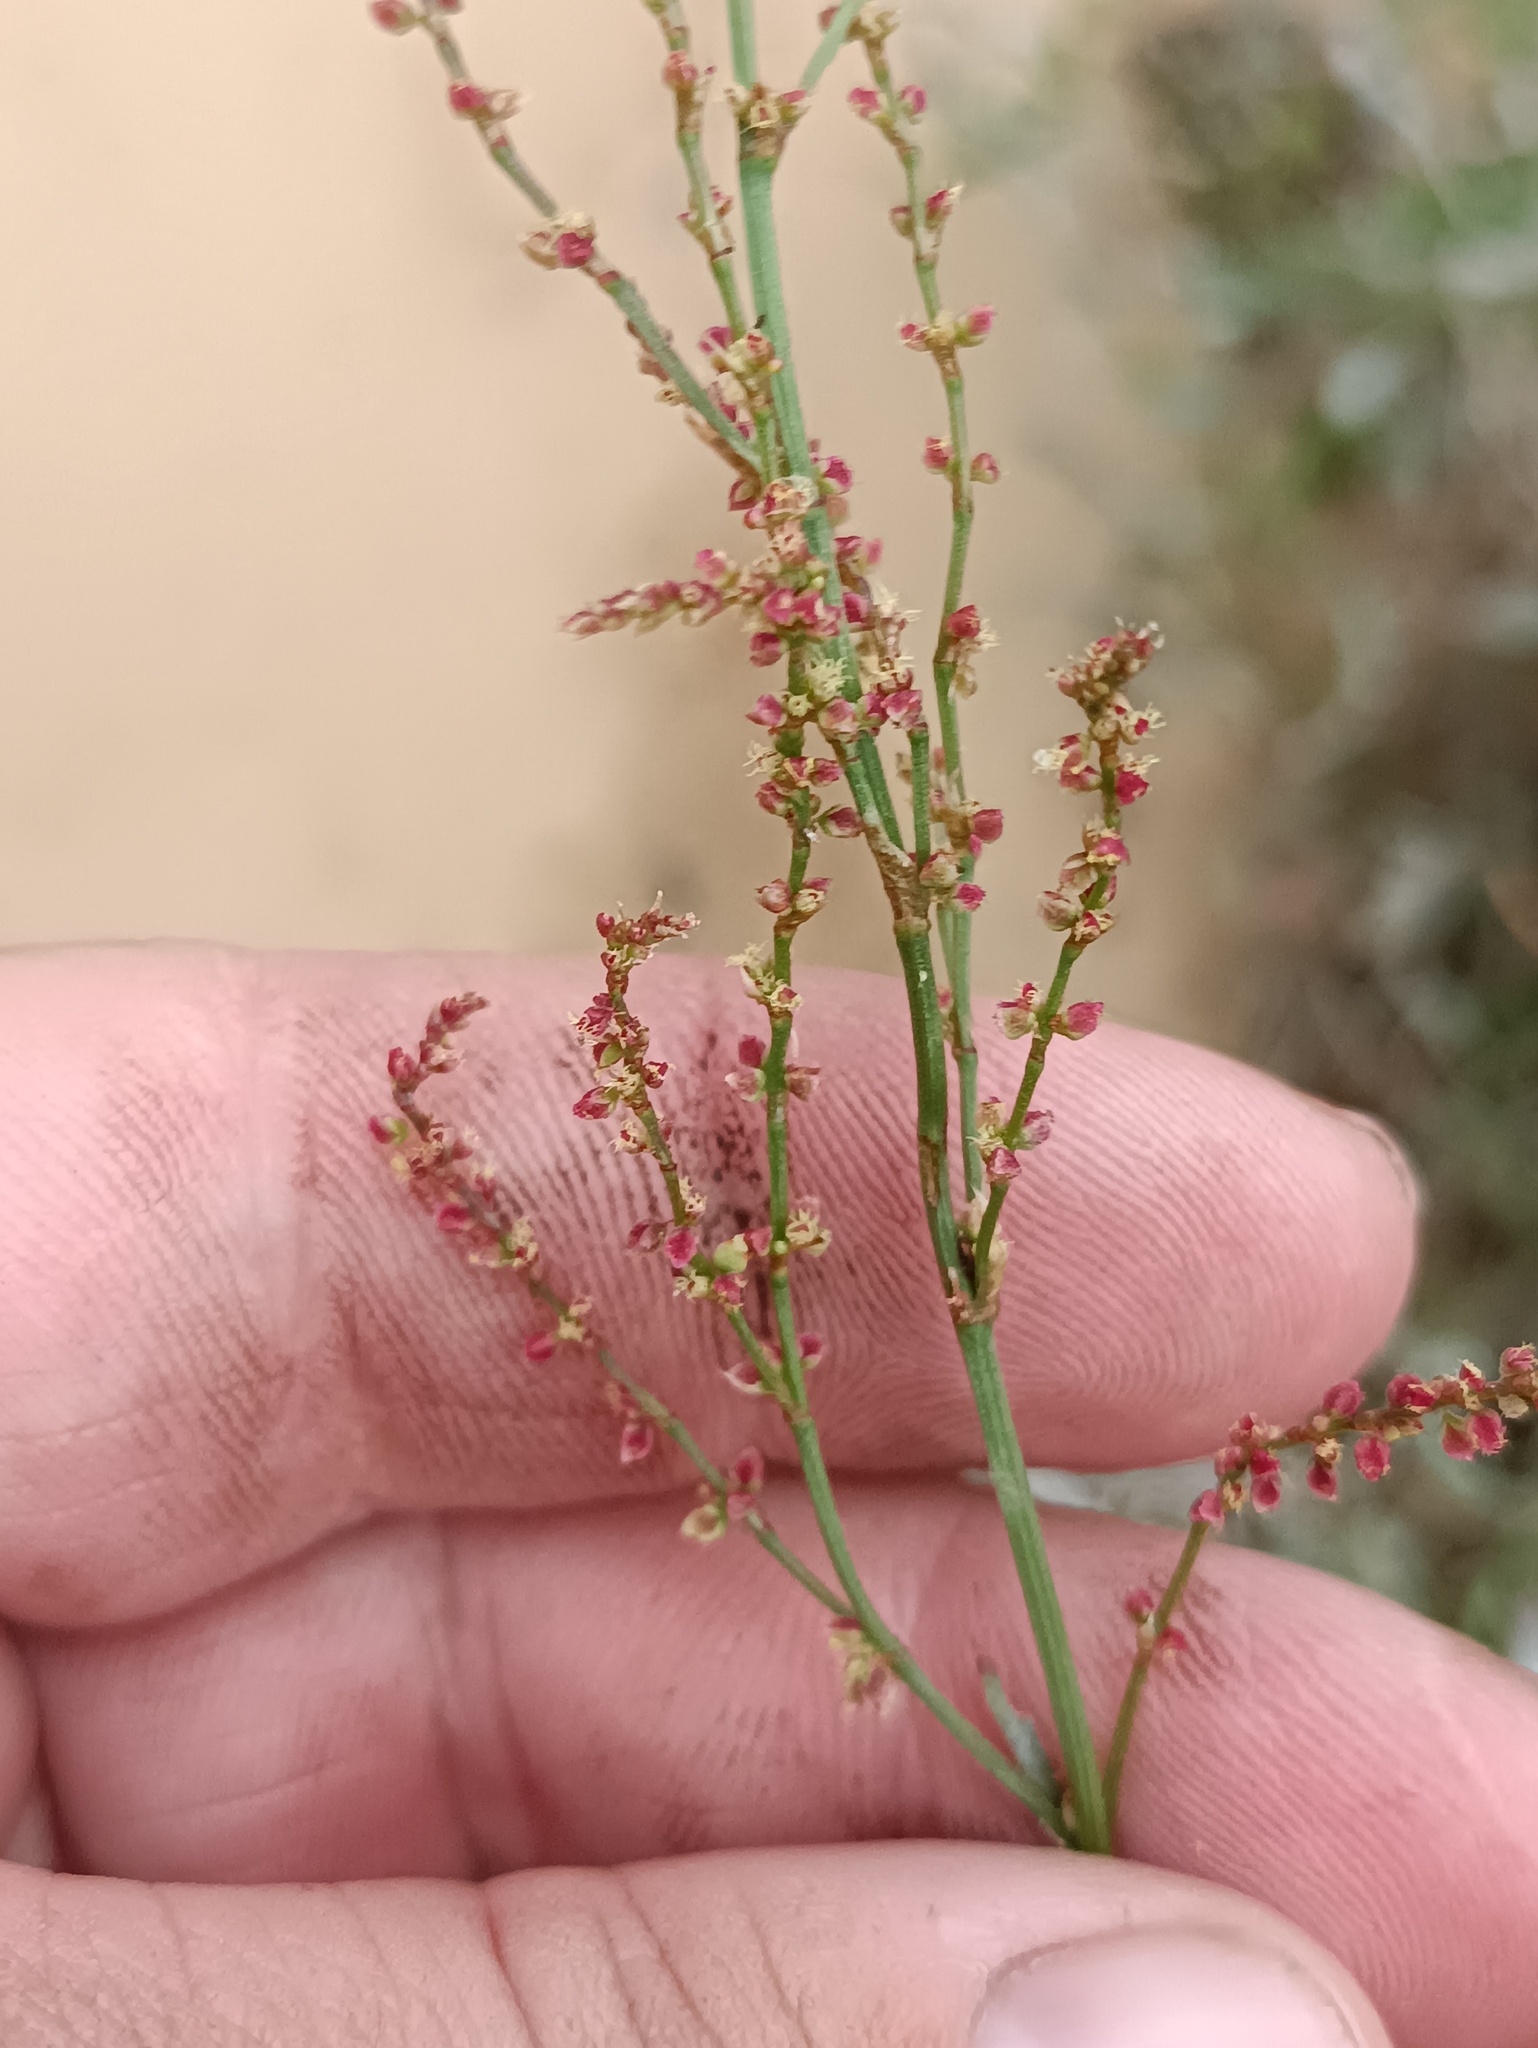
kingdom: Plantae
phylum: Tracheophyta
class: Magnoliopsida
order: Caryophyllales
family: Polygonaceae
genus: Rumex
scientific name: Rumex acetosella
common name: Common sheep sorrel
